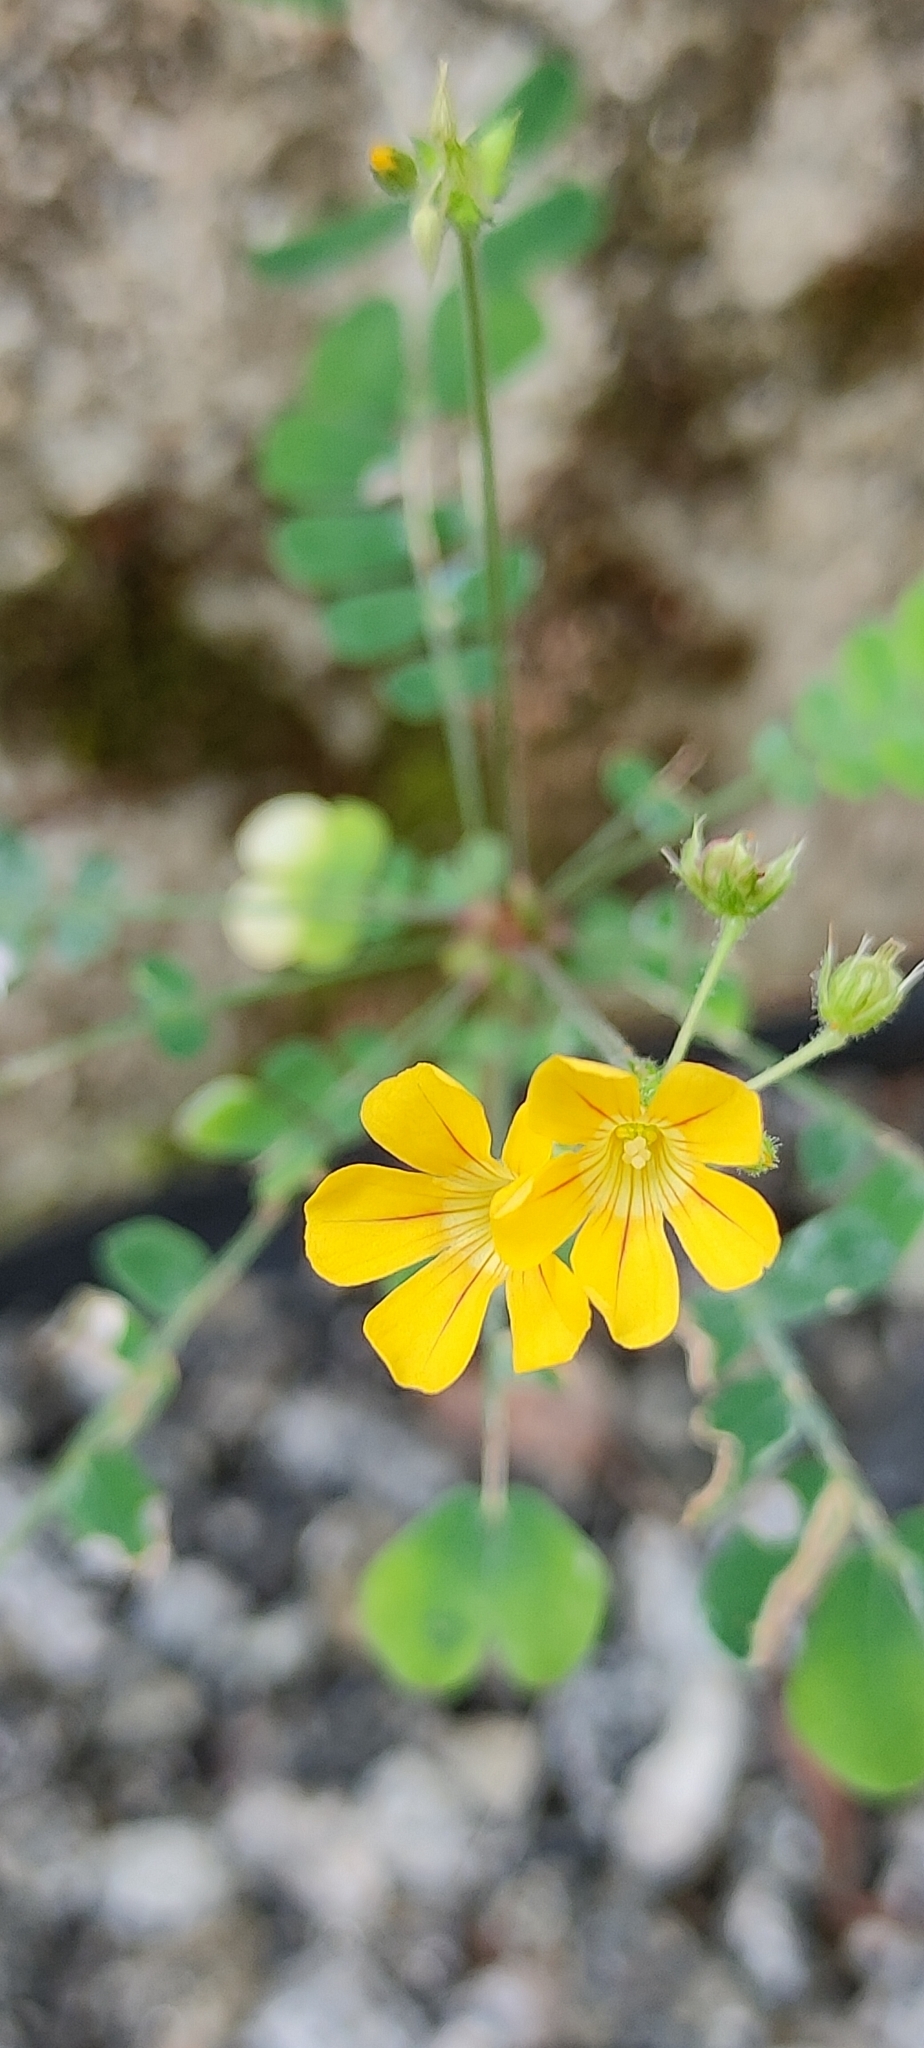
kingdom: Plantae
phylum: Tracheophyta
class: Magnoliopsida
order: Oxalidales
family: Oxalidaceae
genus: Biophytum
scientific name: Biophytum sensitivum
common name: Lifeplant
